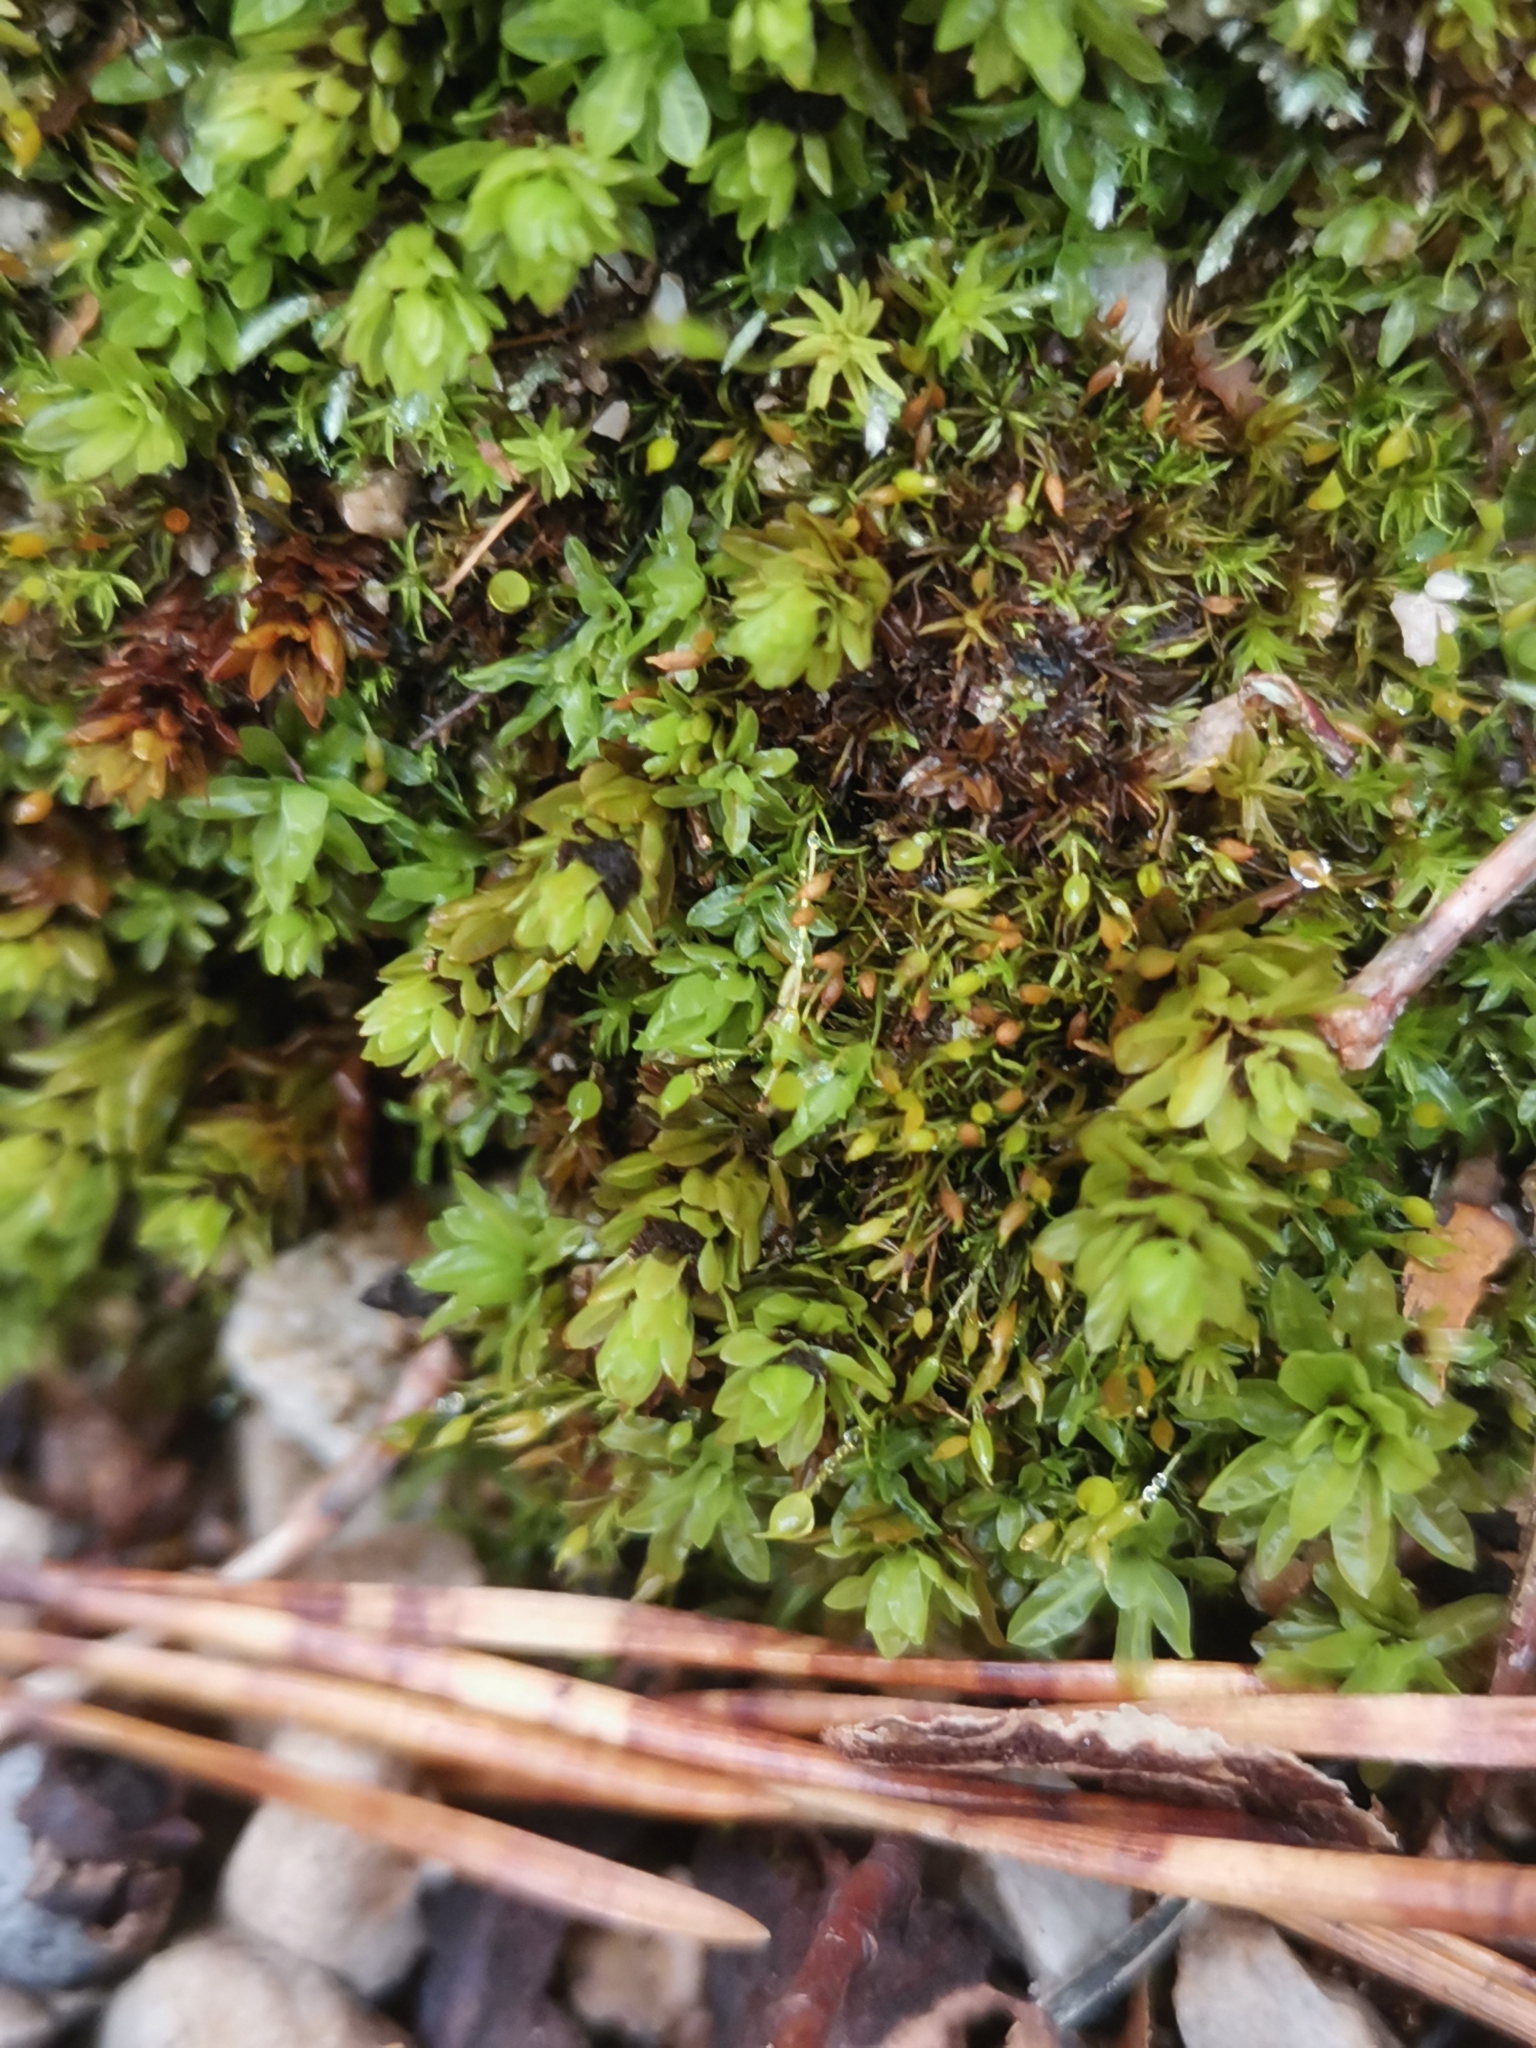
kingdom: Plantae
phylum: Bryophyta
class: Bryopsida
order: Encalyptales
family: Encalyptaceae
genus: Encalypta
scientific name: Encalypta streptocarpa
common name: Spiral extinguisher-moss
